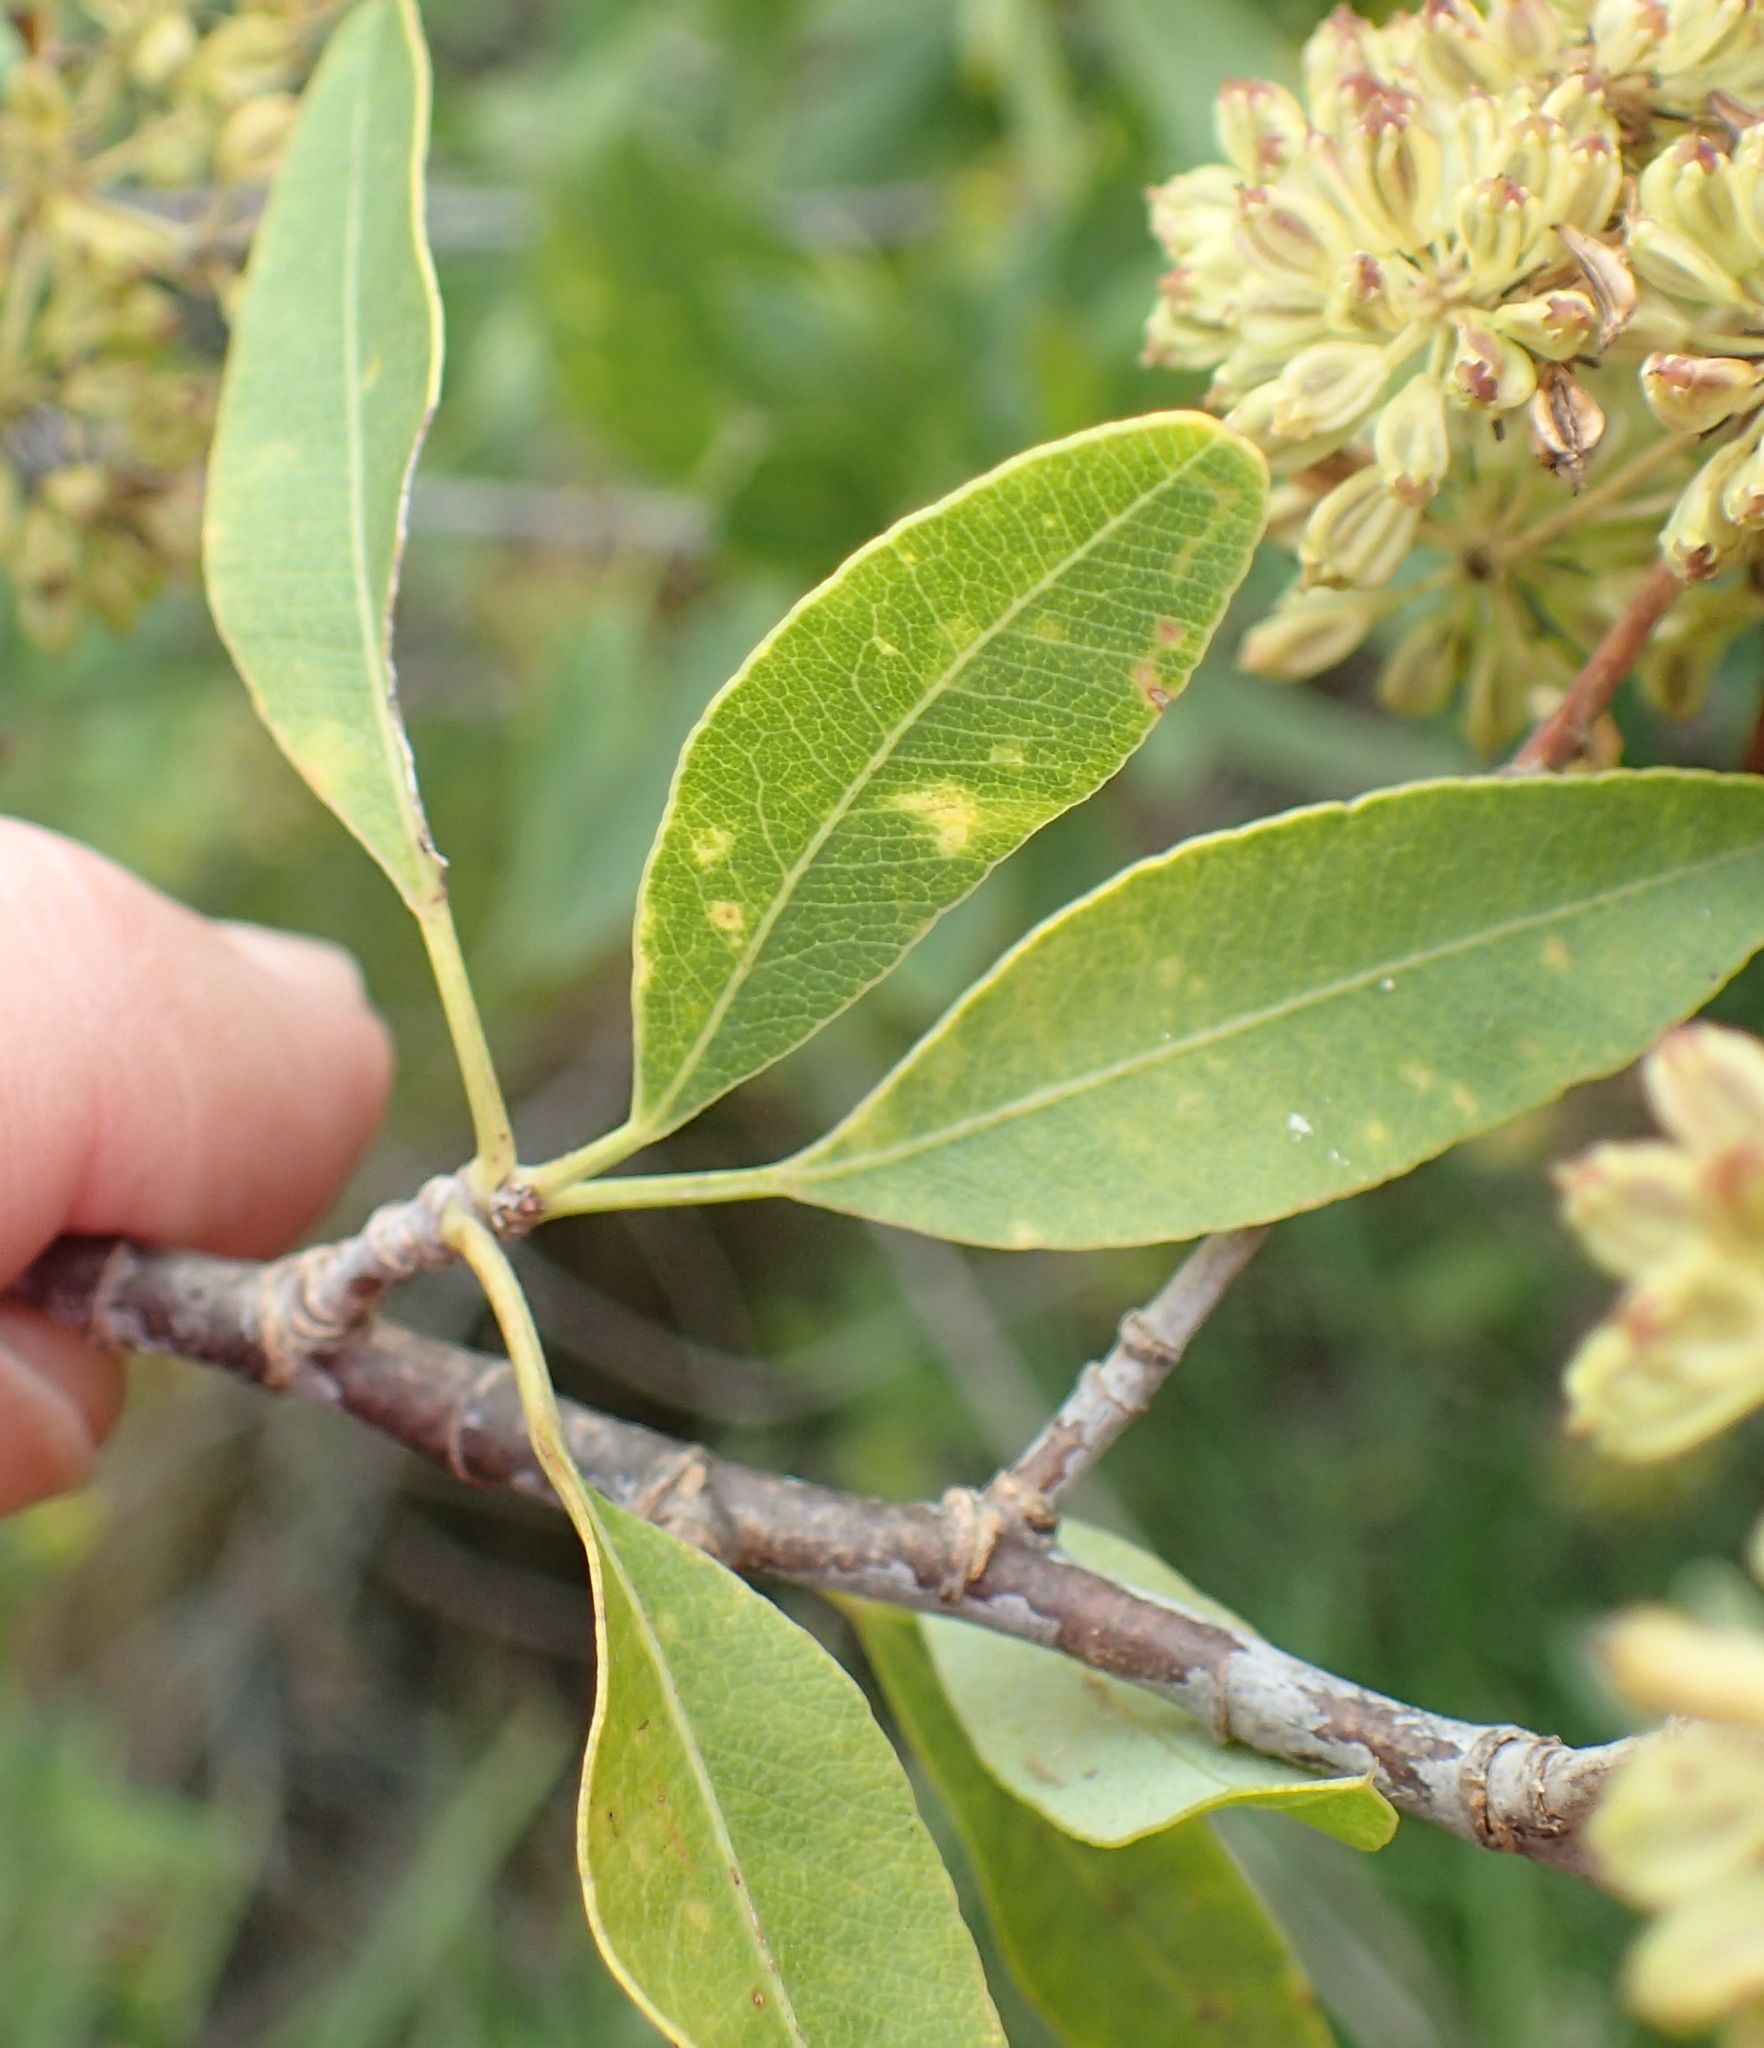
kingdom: Plantae
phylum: Tracheophyta
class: Magnoliopsida
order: Apiales
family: Apiaceae
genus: Heteromorpha
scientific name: Heteromorpha arborescens
